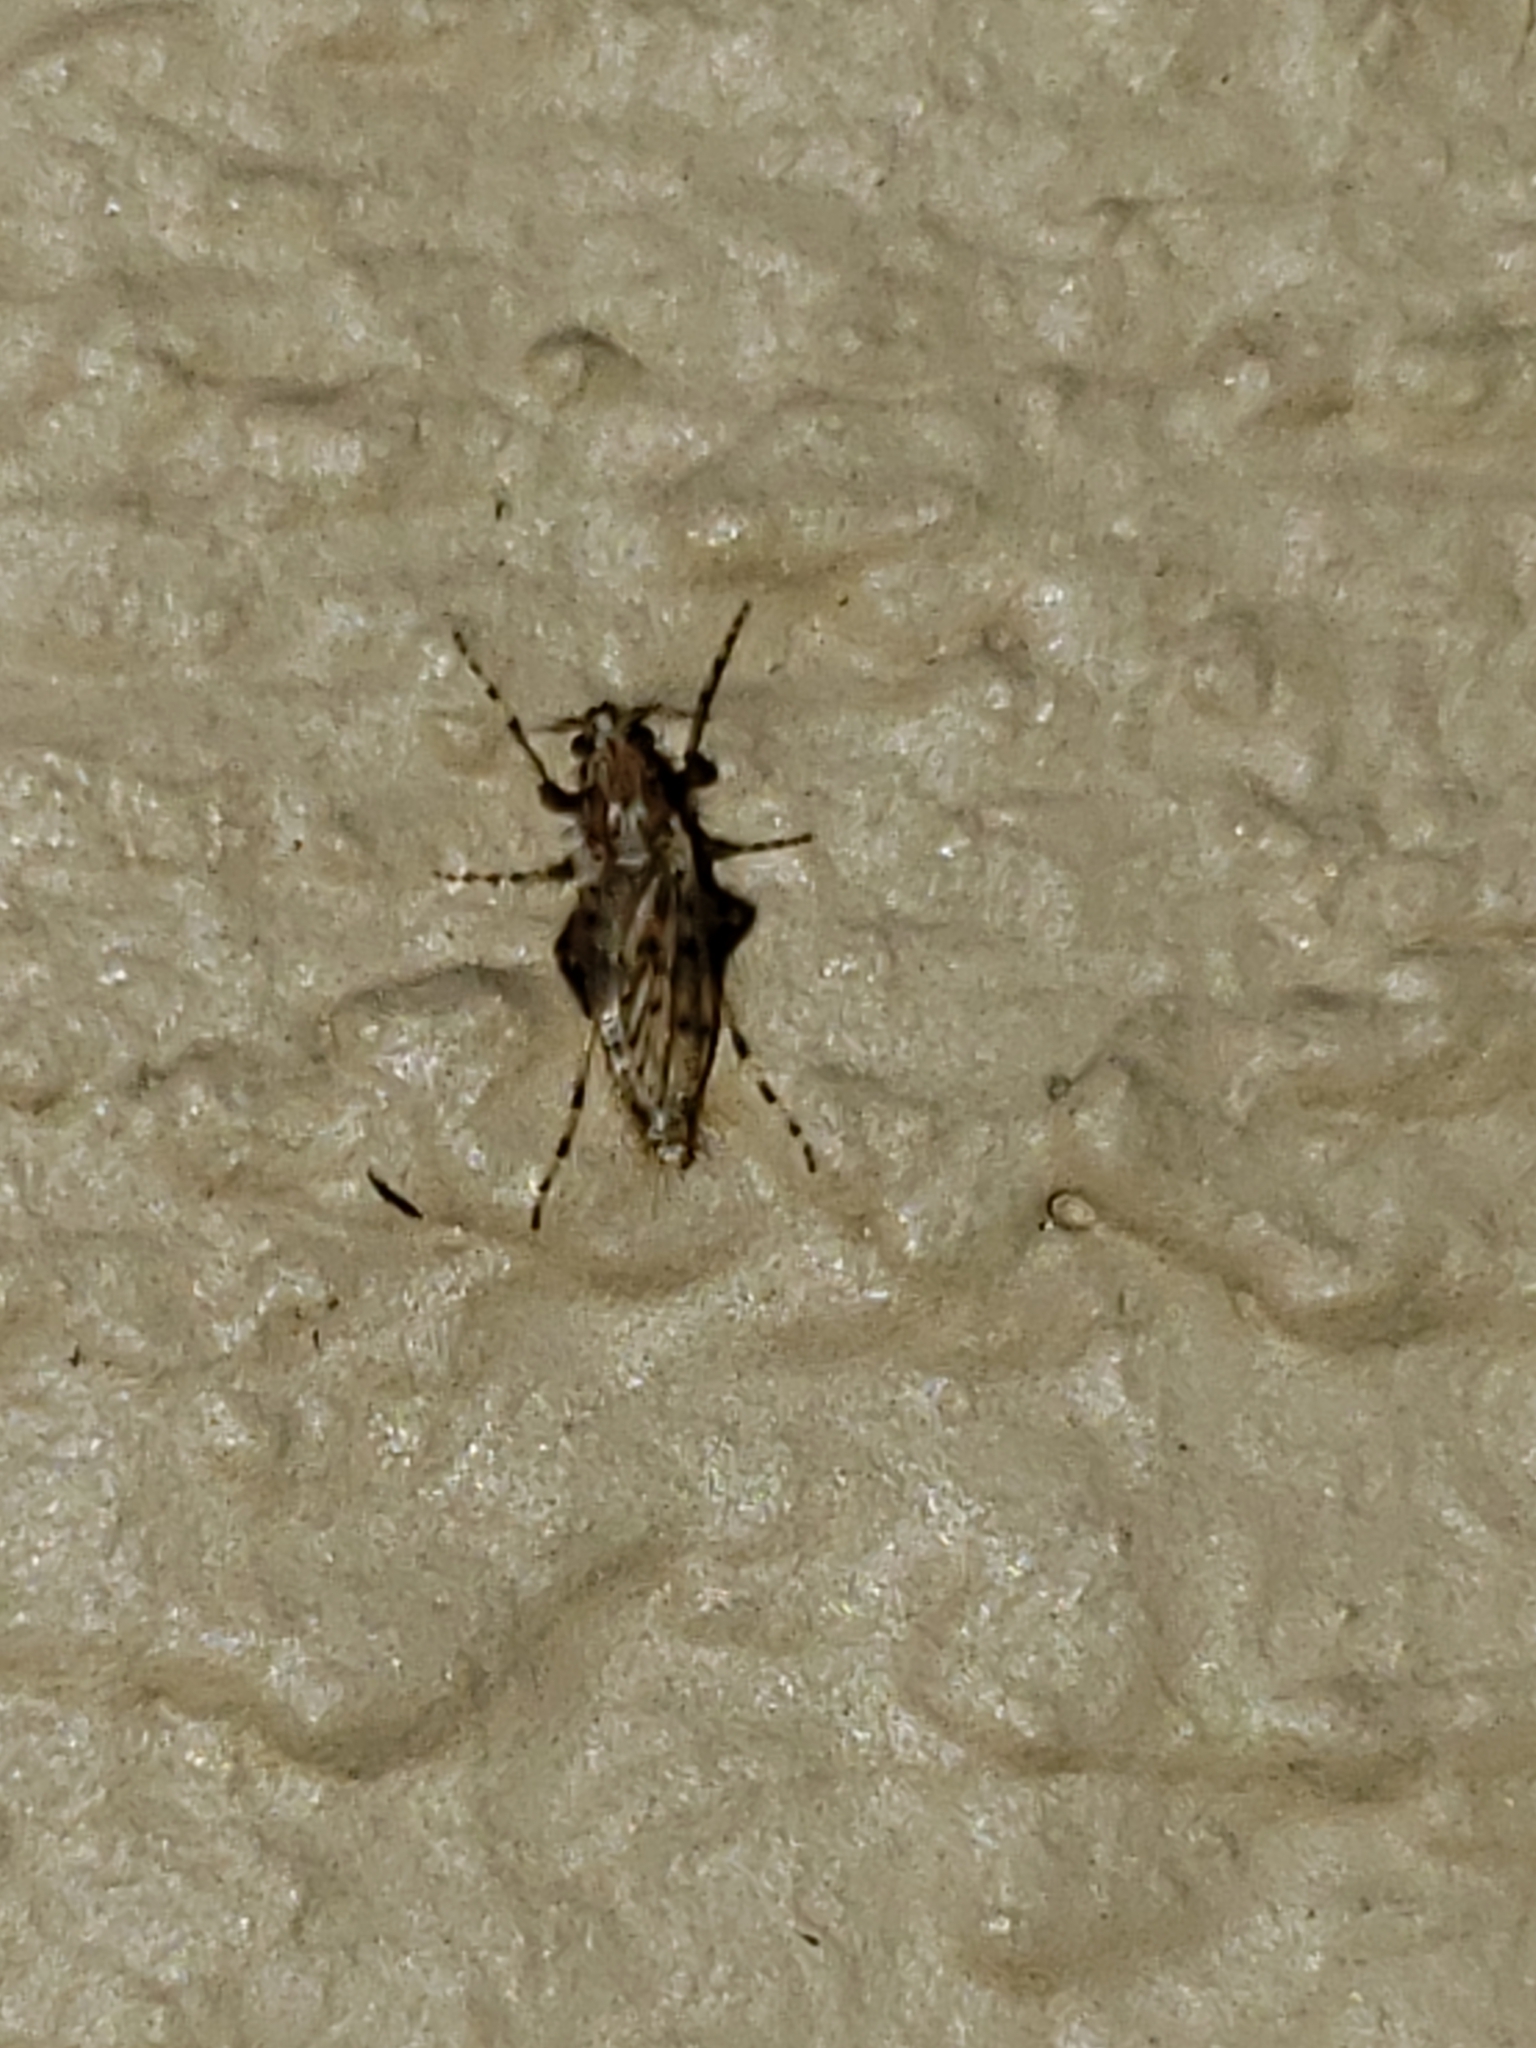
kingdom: Animalia
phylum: Arthropoda
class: Insecta
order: Diptera
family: Chaoboridae
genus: Chaoborus
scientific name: Chaoborus punctipennis
